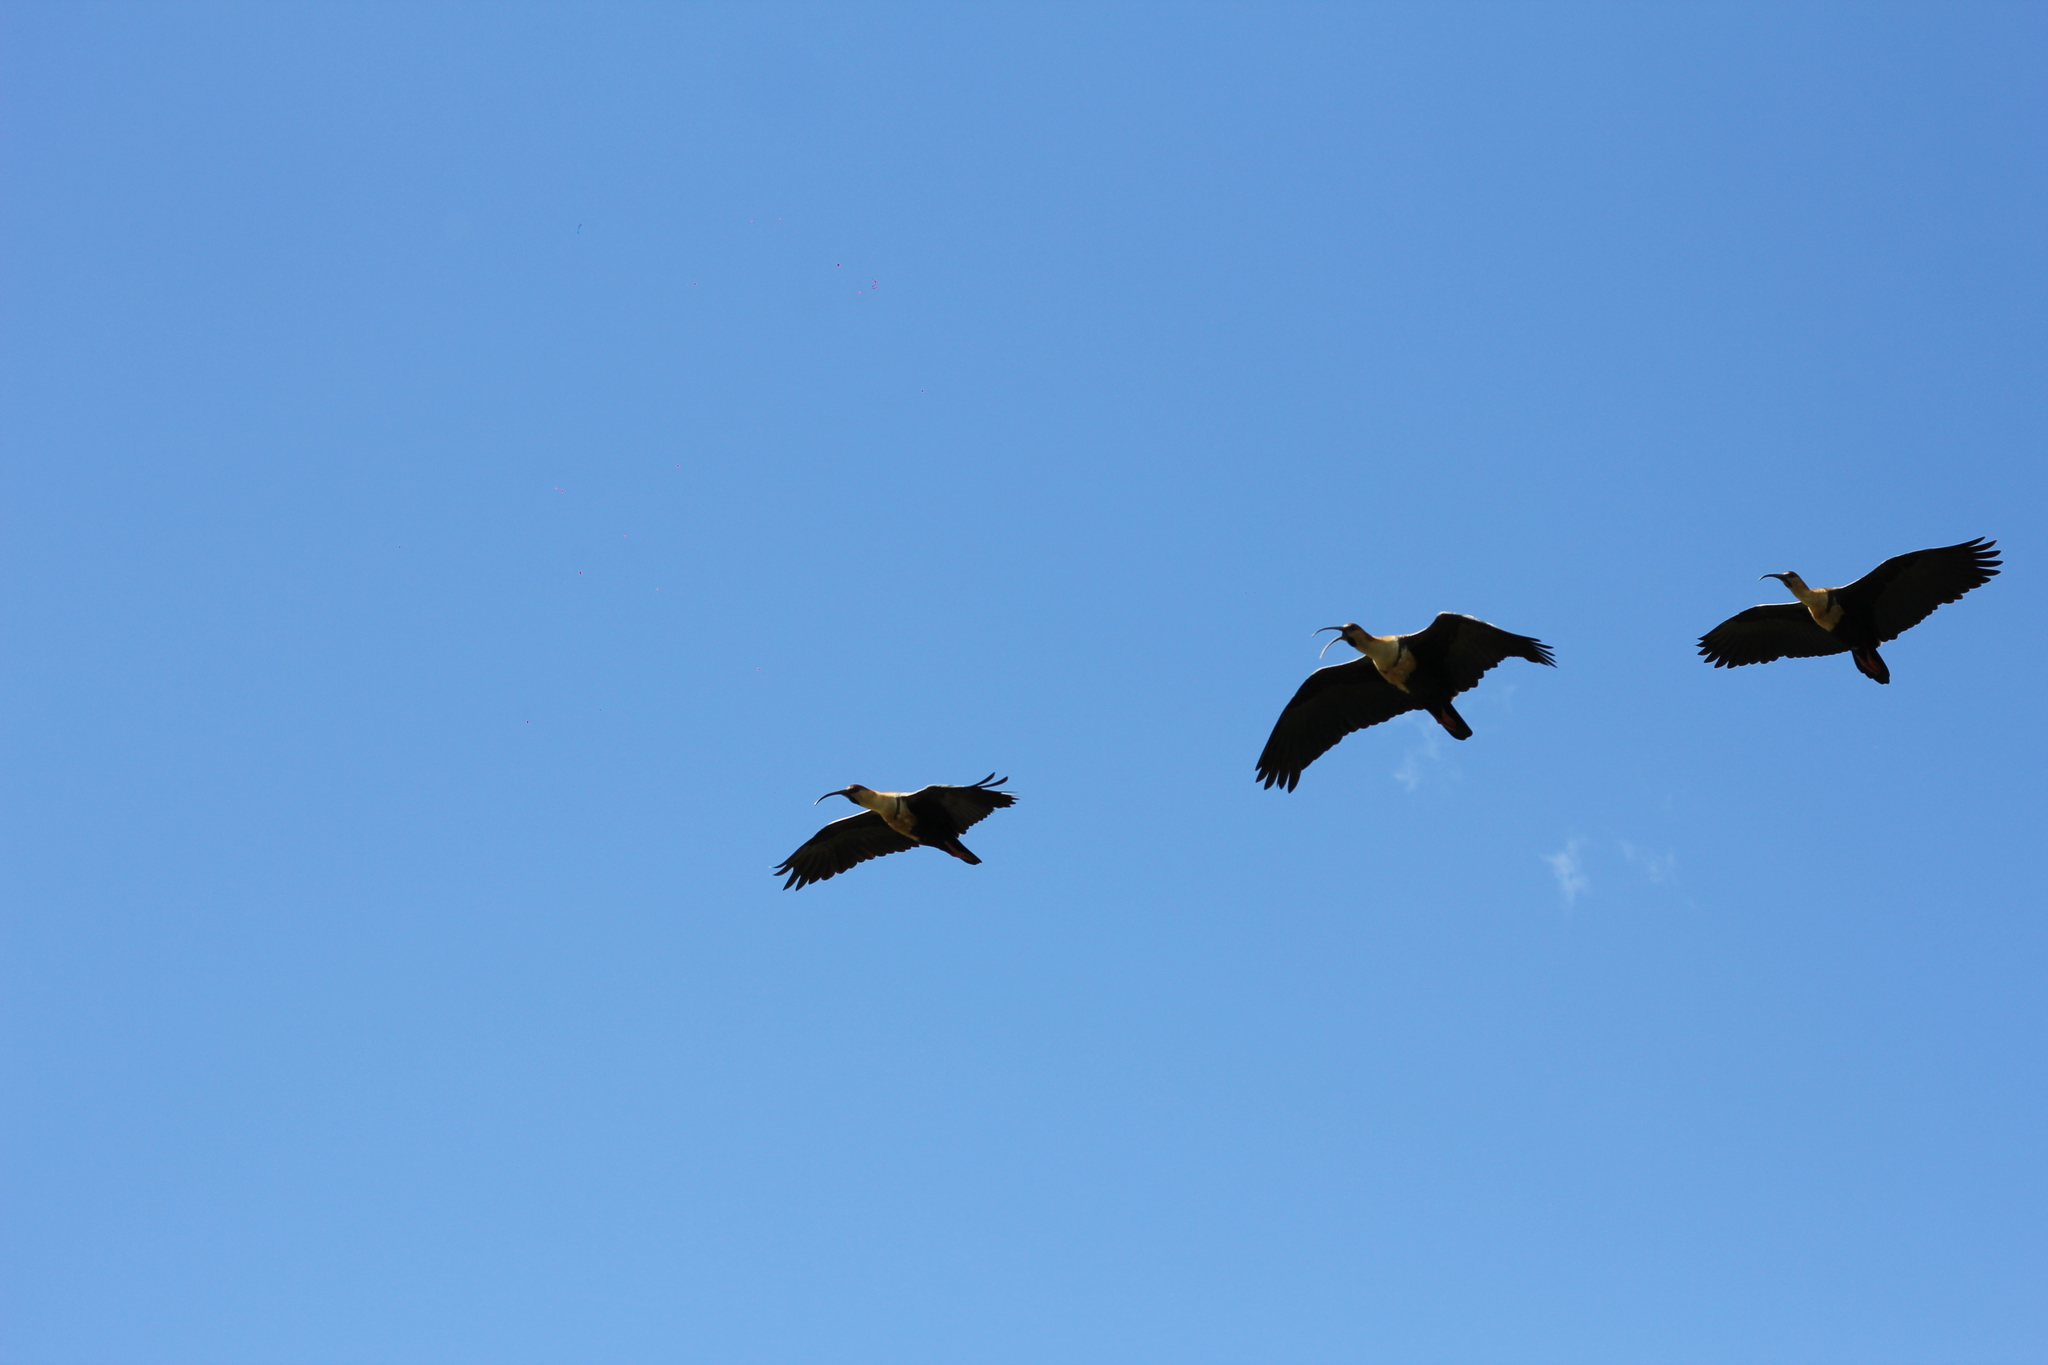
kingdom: Animalia
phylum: Chordata
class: Aves
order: Pelecaniformes
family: Threskiornithidae
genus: Theristicus
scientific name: Theristicus melanopis
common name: Black-faced ibis
